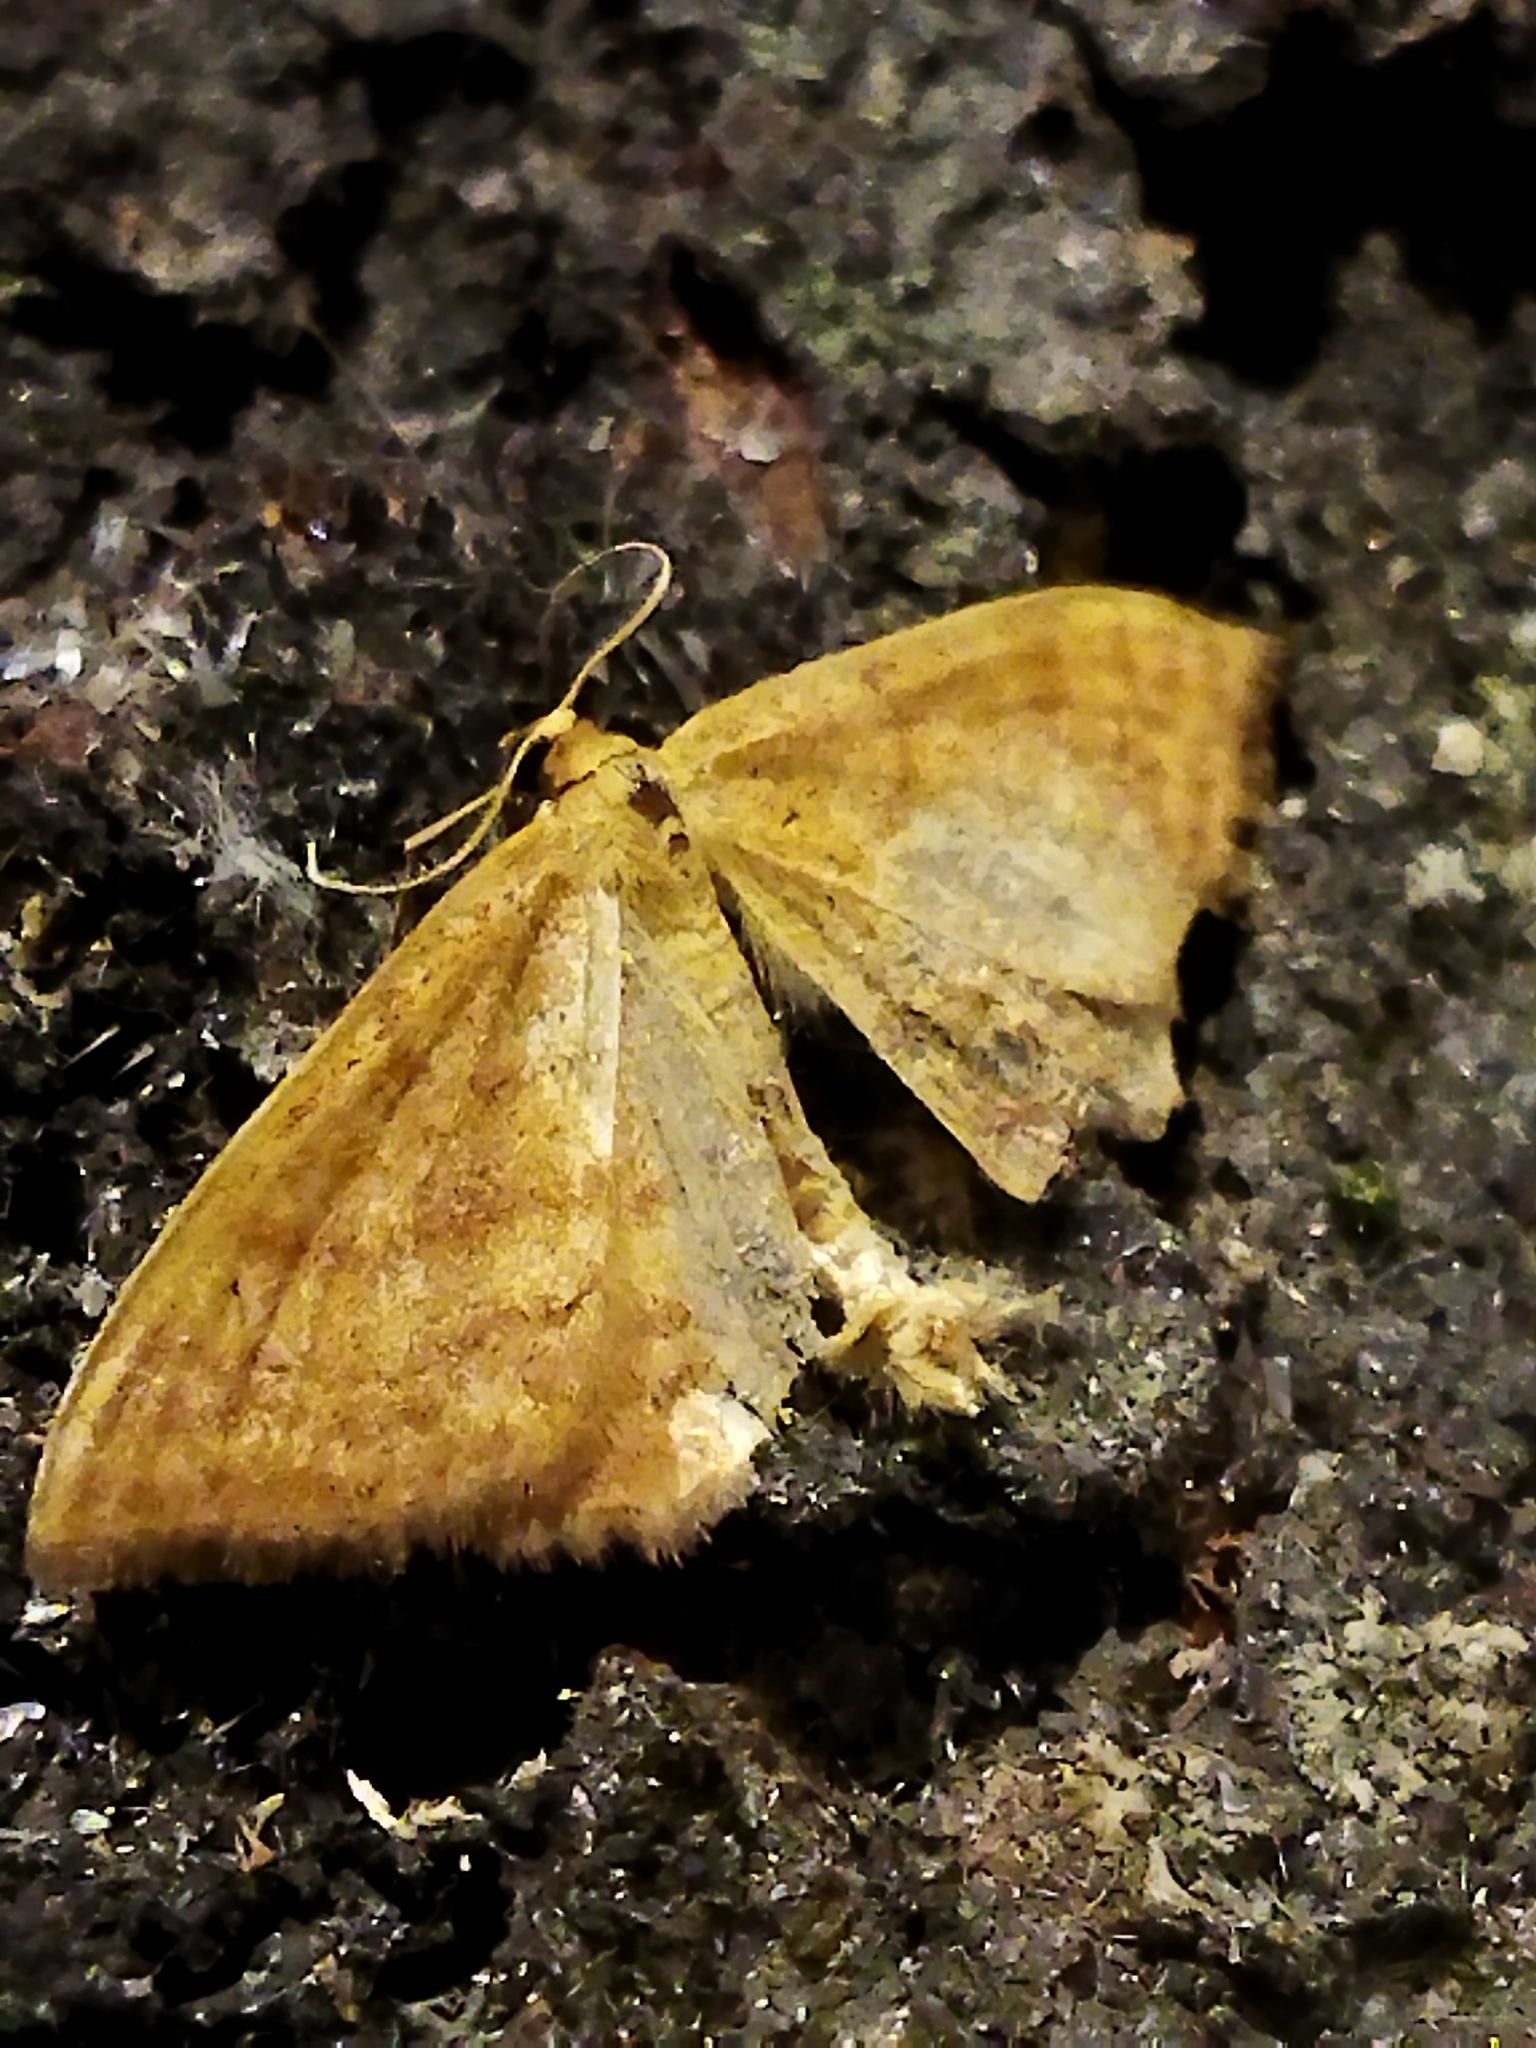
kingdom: Animalia
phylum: Arthropoda
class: Insecta
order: Lepidoptera
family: Geometridae
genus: Idaea
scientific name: Idaea ochrata
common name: Bright wave
